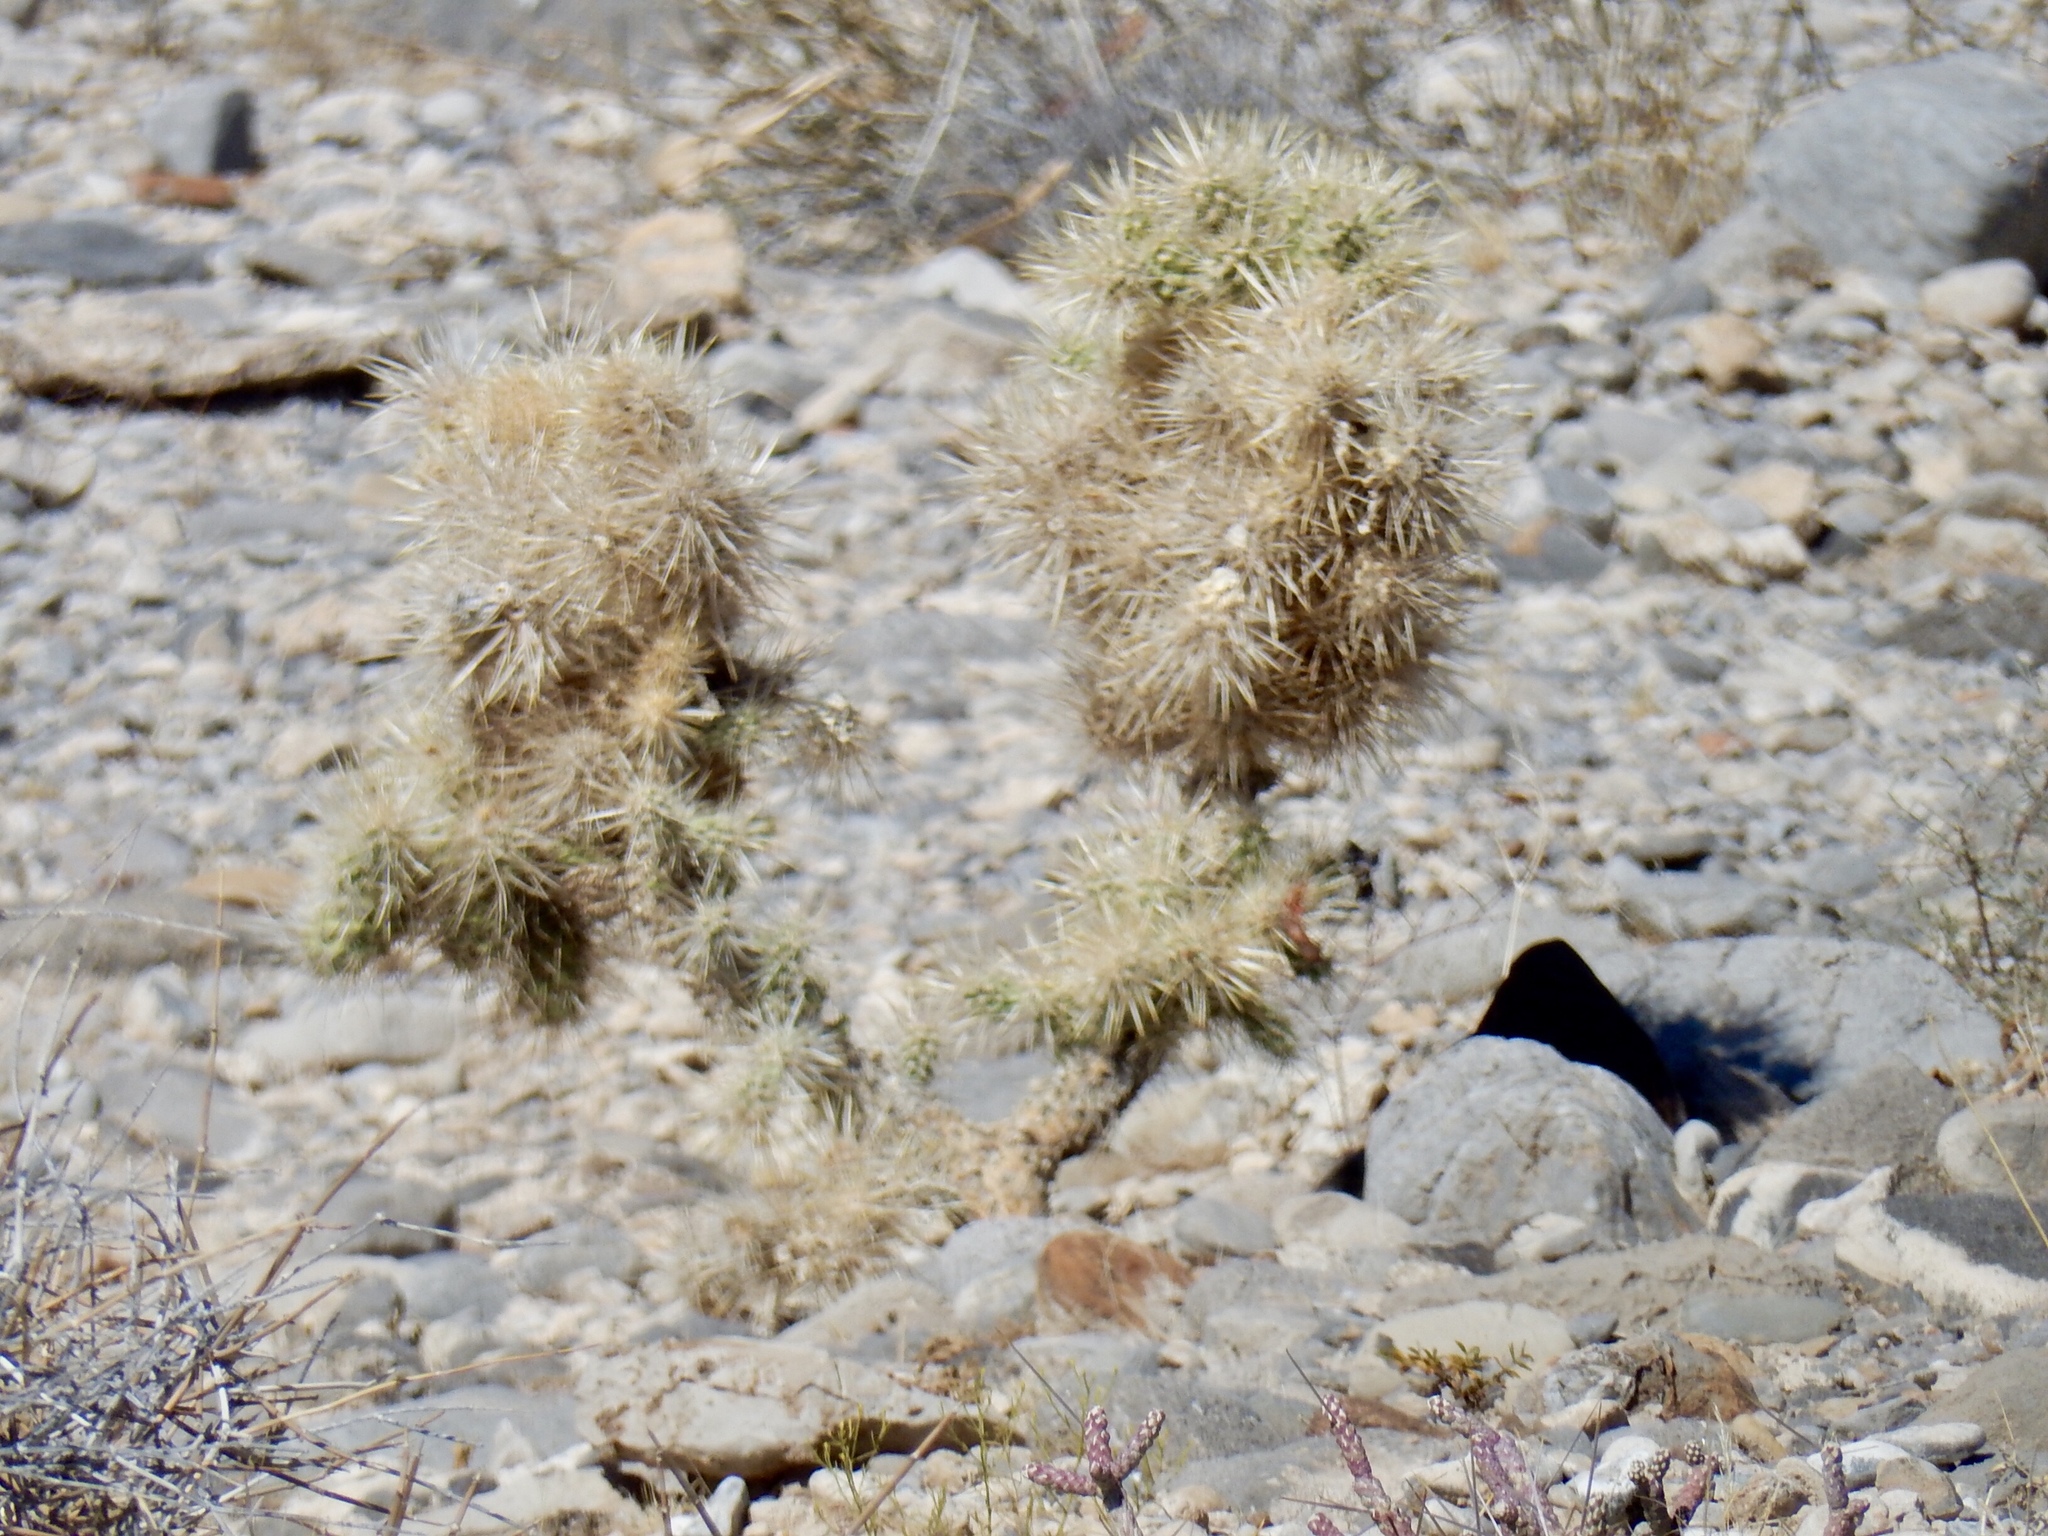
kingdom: Plantae
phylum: Tracheophyta
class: Magnoliopsida
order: Caryophyllales
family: Cactaceae
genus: Cylindropuntia
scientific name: Cylindropuntia echinocarpa
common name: Ground cholla
